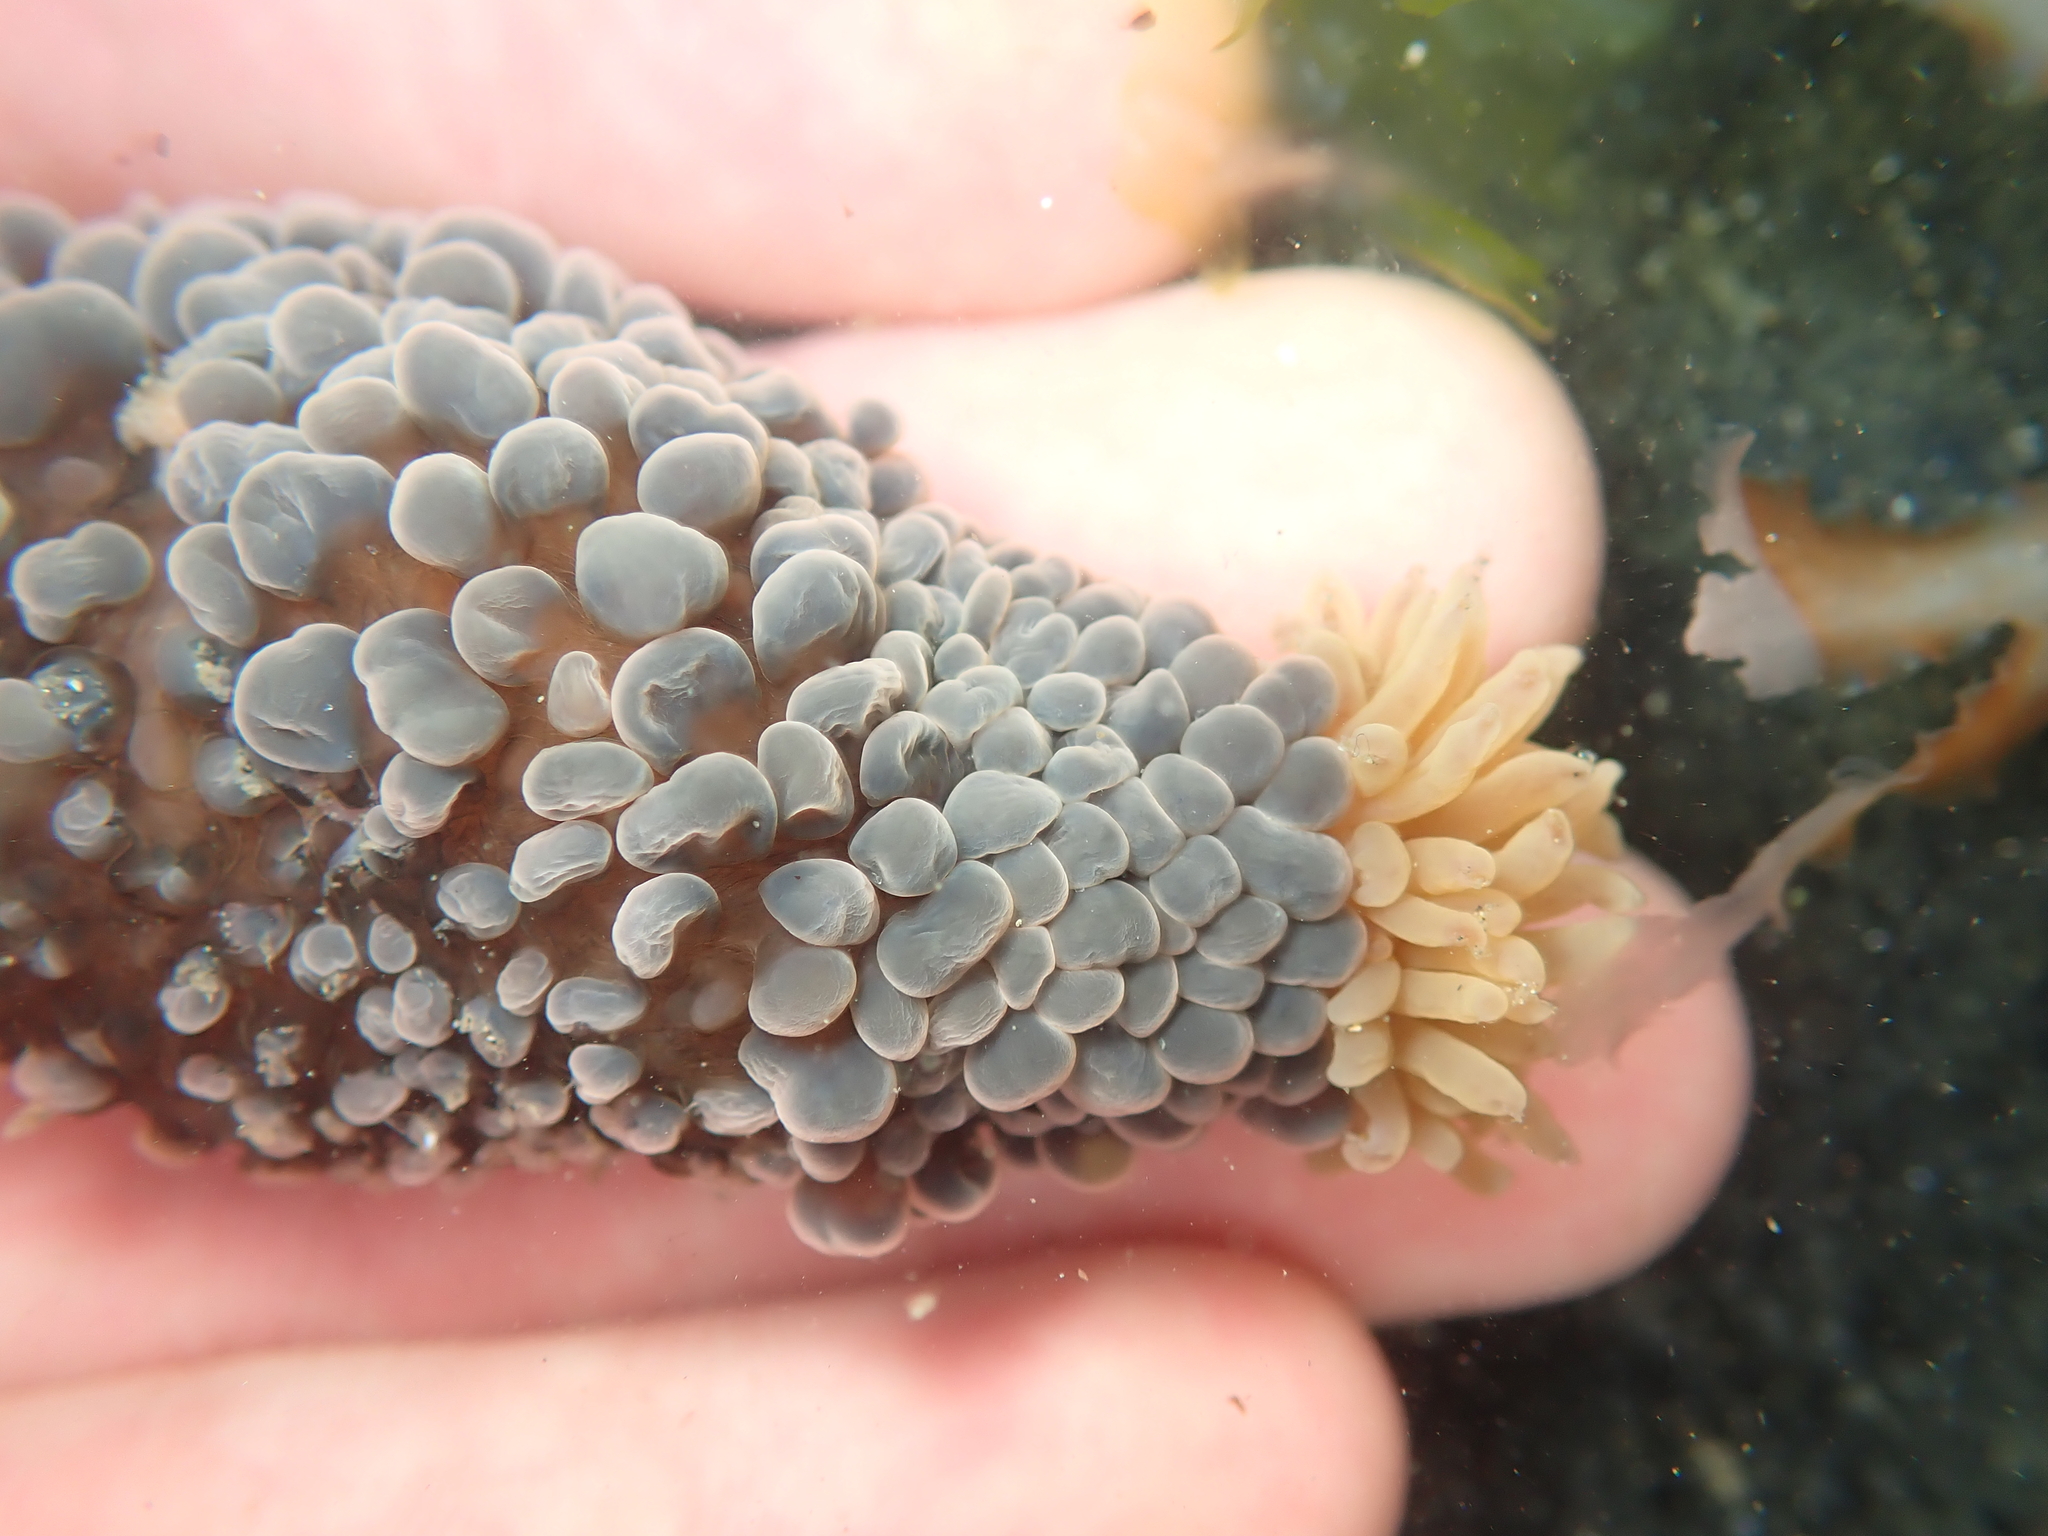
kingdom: Animalia
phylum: Cnidaria
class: Anthozoa
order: Actiniaria
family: Actiniidae
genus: Phlyctenactis
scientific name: Phlyctenactis tuberculosa
